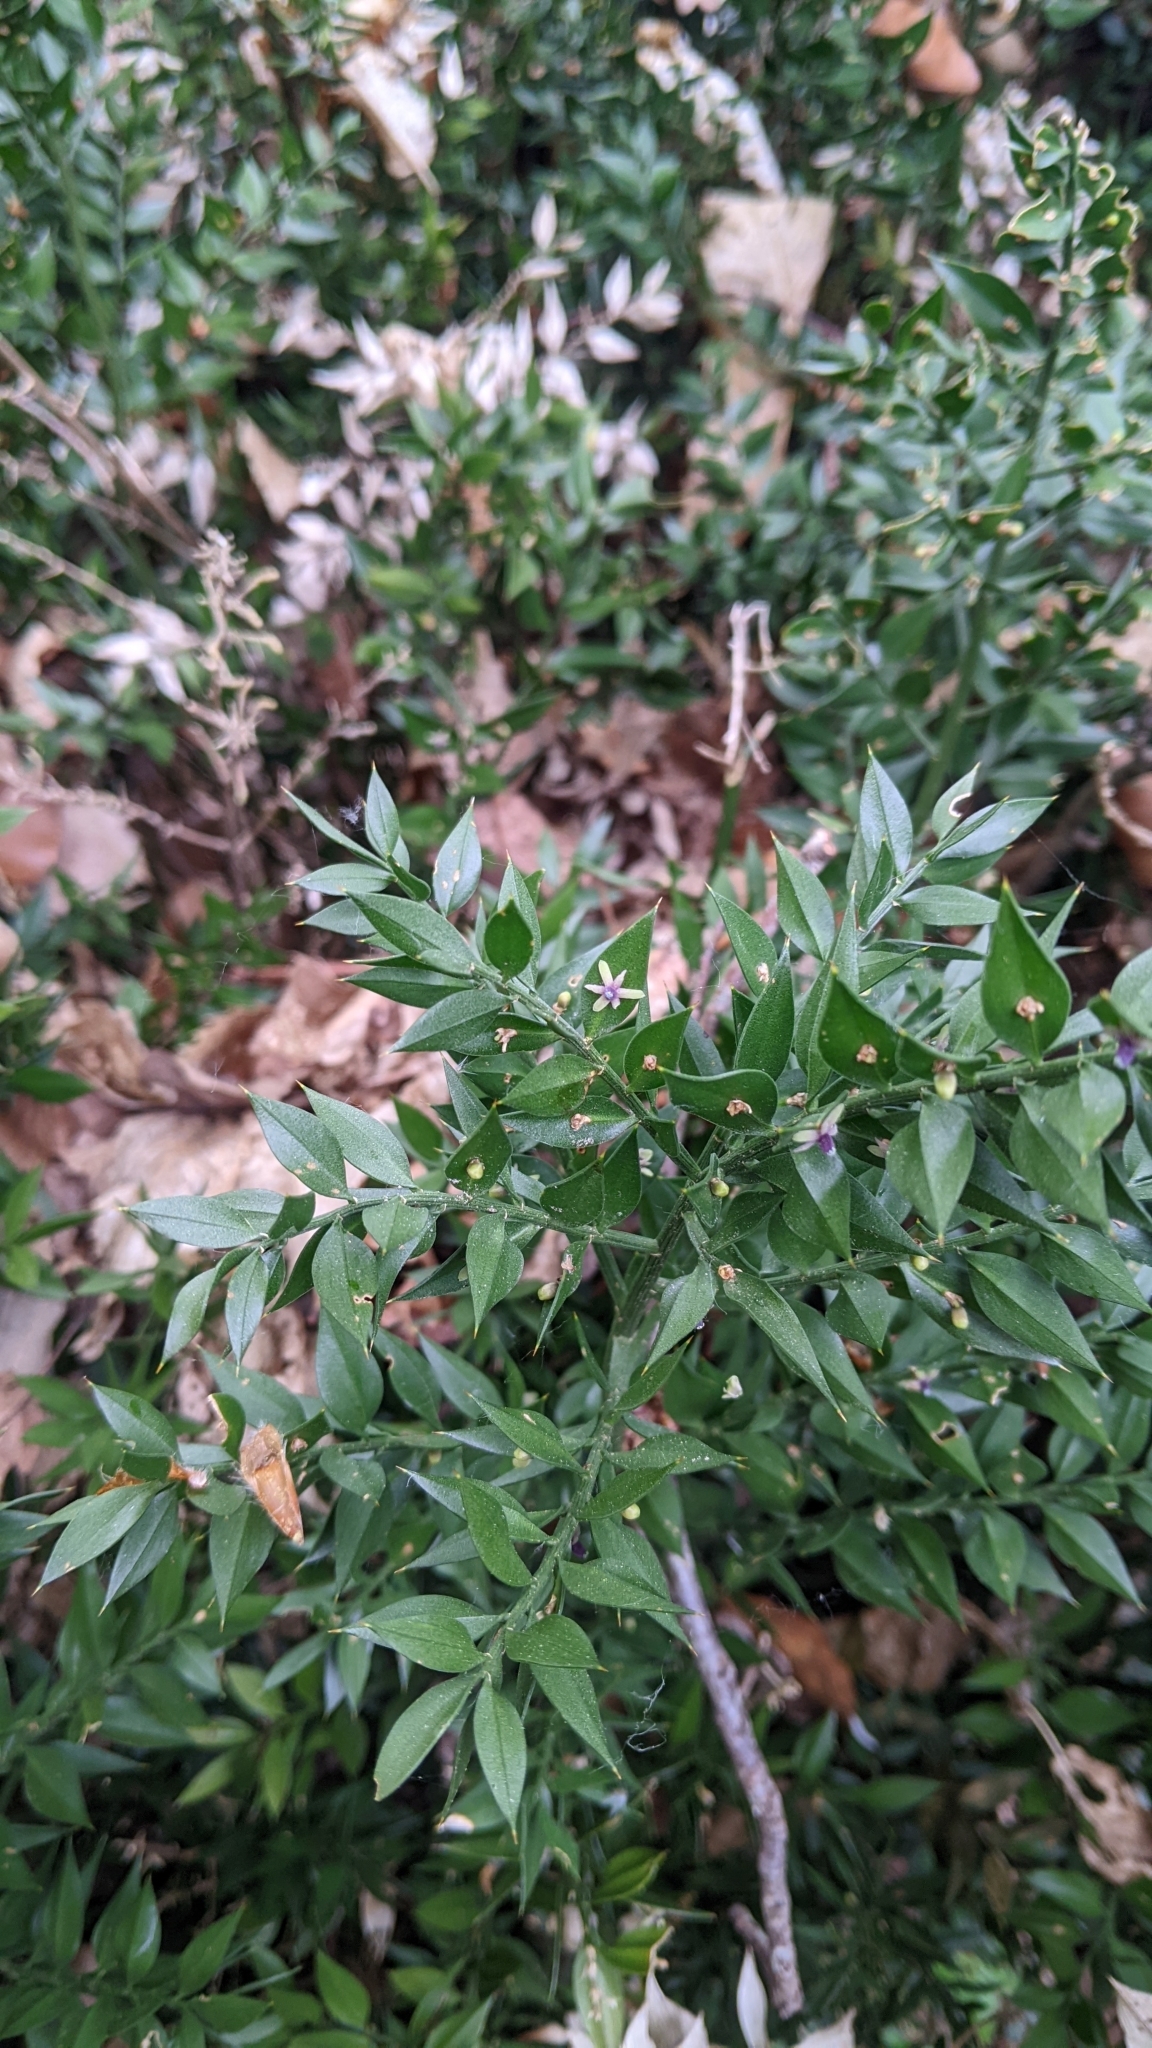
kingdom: Plantae
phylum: Tracheophyta
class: Liliopsida
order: Asparagales
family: Asparagaceae
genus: Ruscus
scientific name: Ruscus aculeatus
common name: Butcher's-broom
